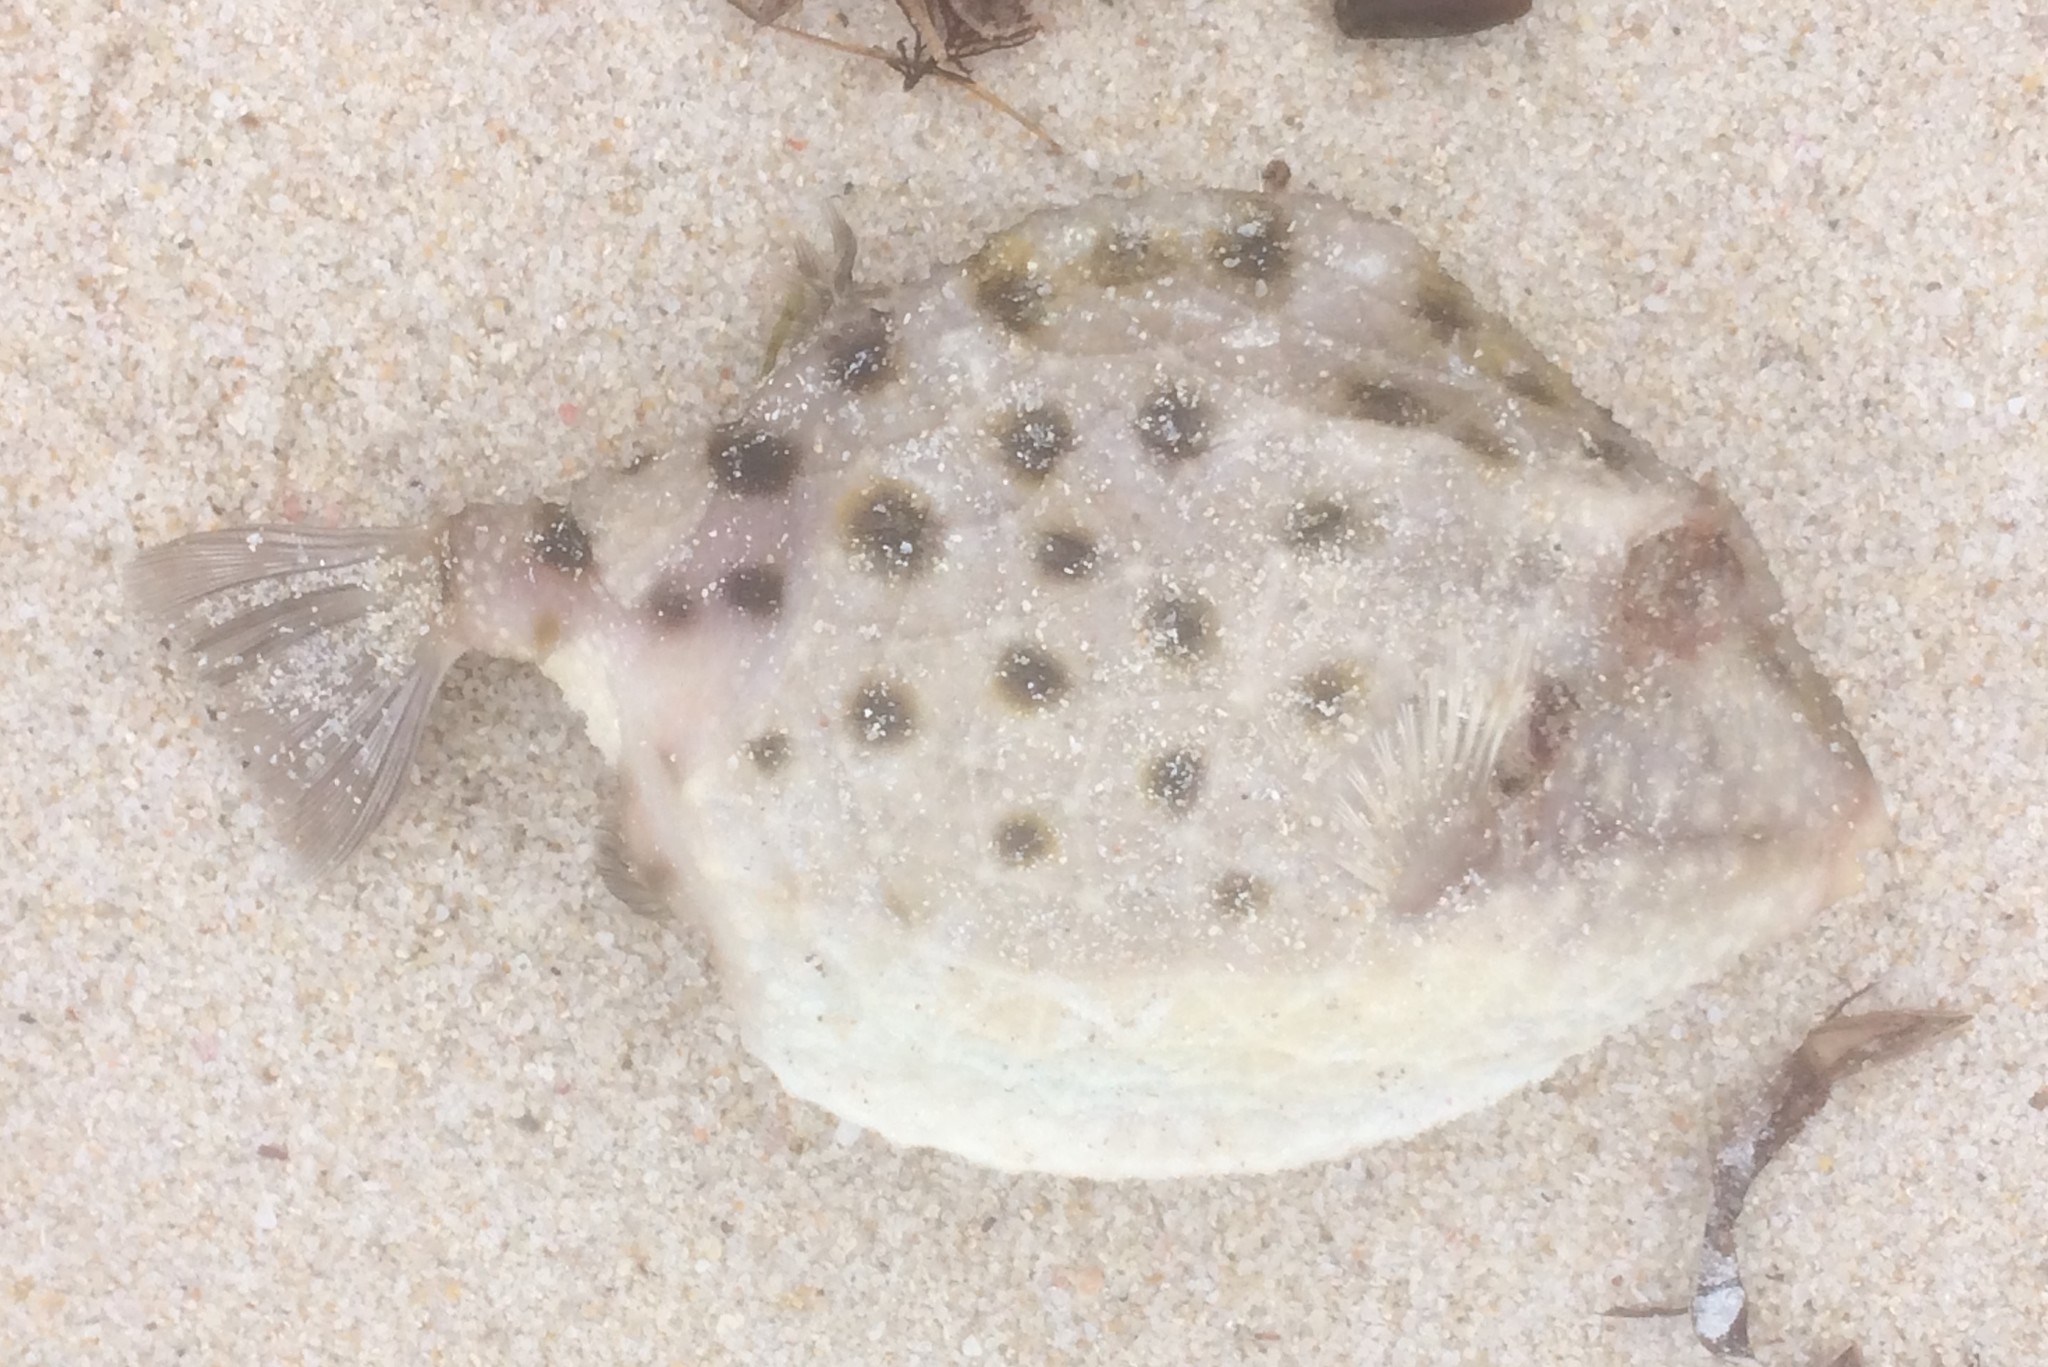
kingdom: Animalia
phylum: Chordata
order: Tetraodontiformes
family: Aracanidae
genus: Anoplocapros
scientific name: Anoplocapros amygdaloides
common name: Blue boxfish
